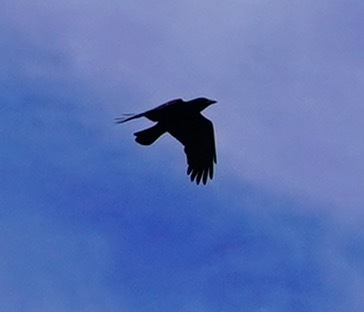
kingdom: Animalia
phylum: Chordata
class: Aves
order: Passeriformes
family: Corvidae
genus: Corvus
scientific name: Corvus brachyrhynchos
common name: American crow
